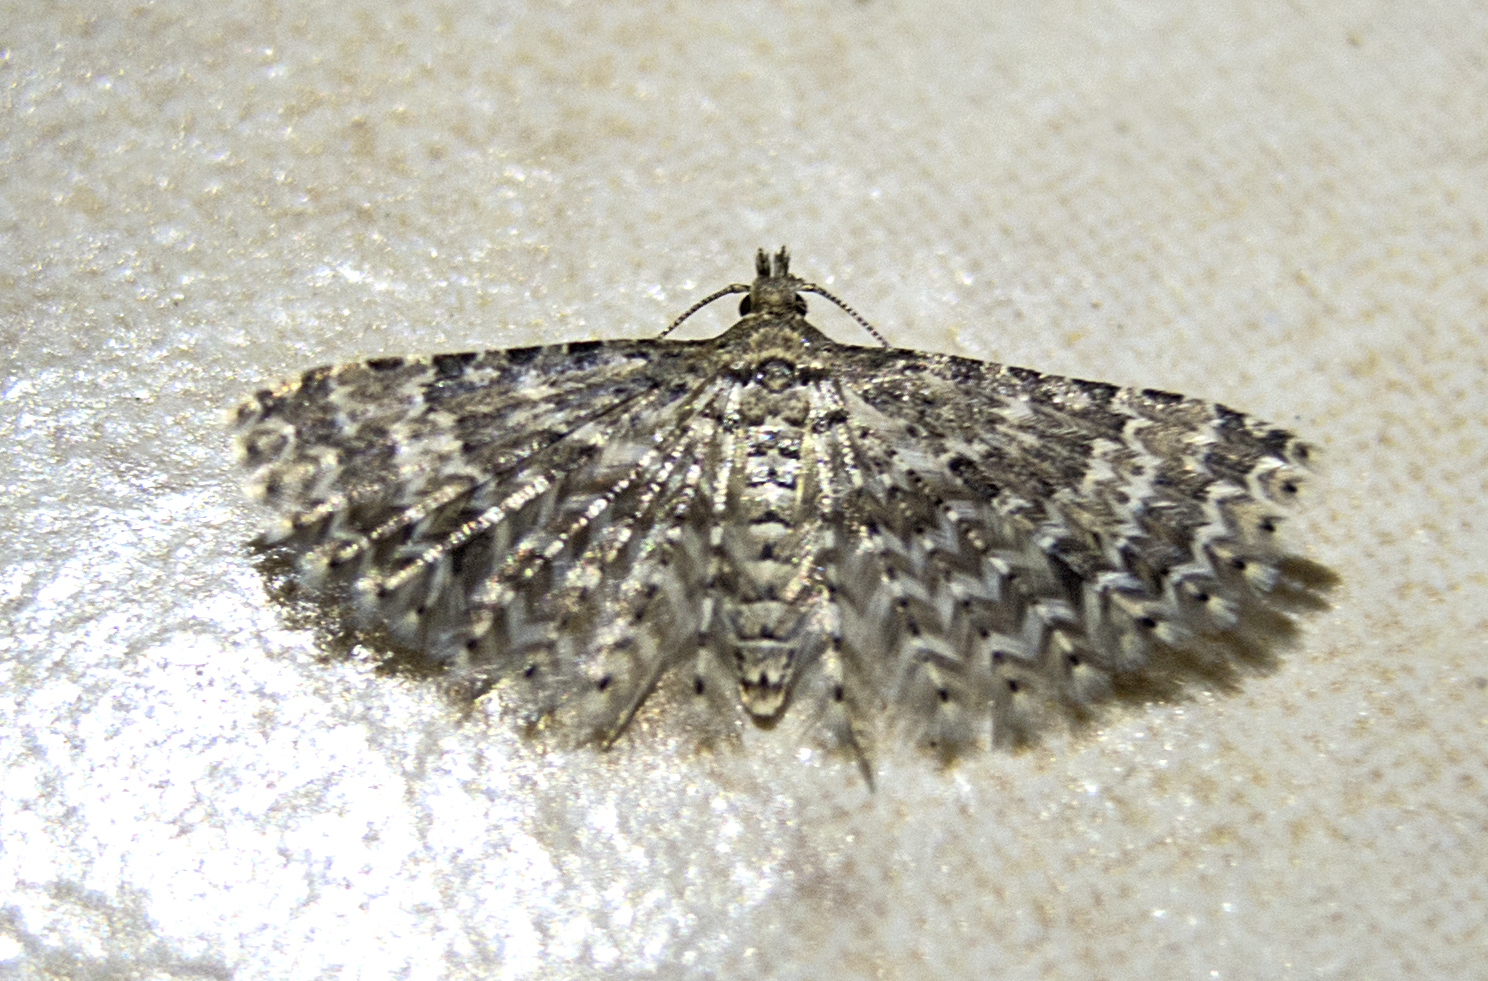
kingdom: Animalia
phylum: Arthropoda
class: Insecta
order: Lepidoptera
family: Alucitidae
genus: Alucita
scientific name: Alucita huebneri
